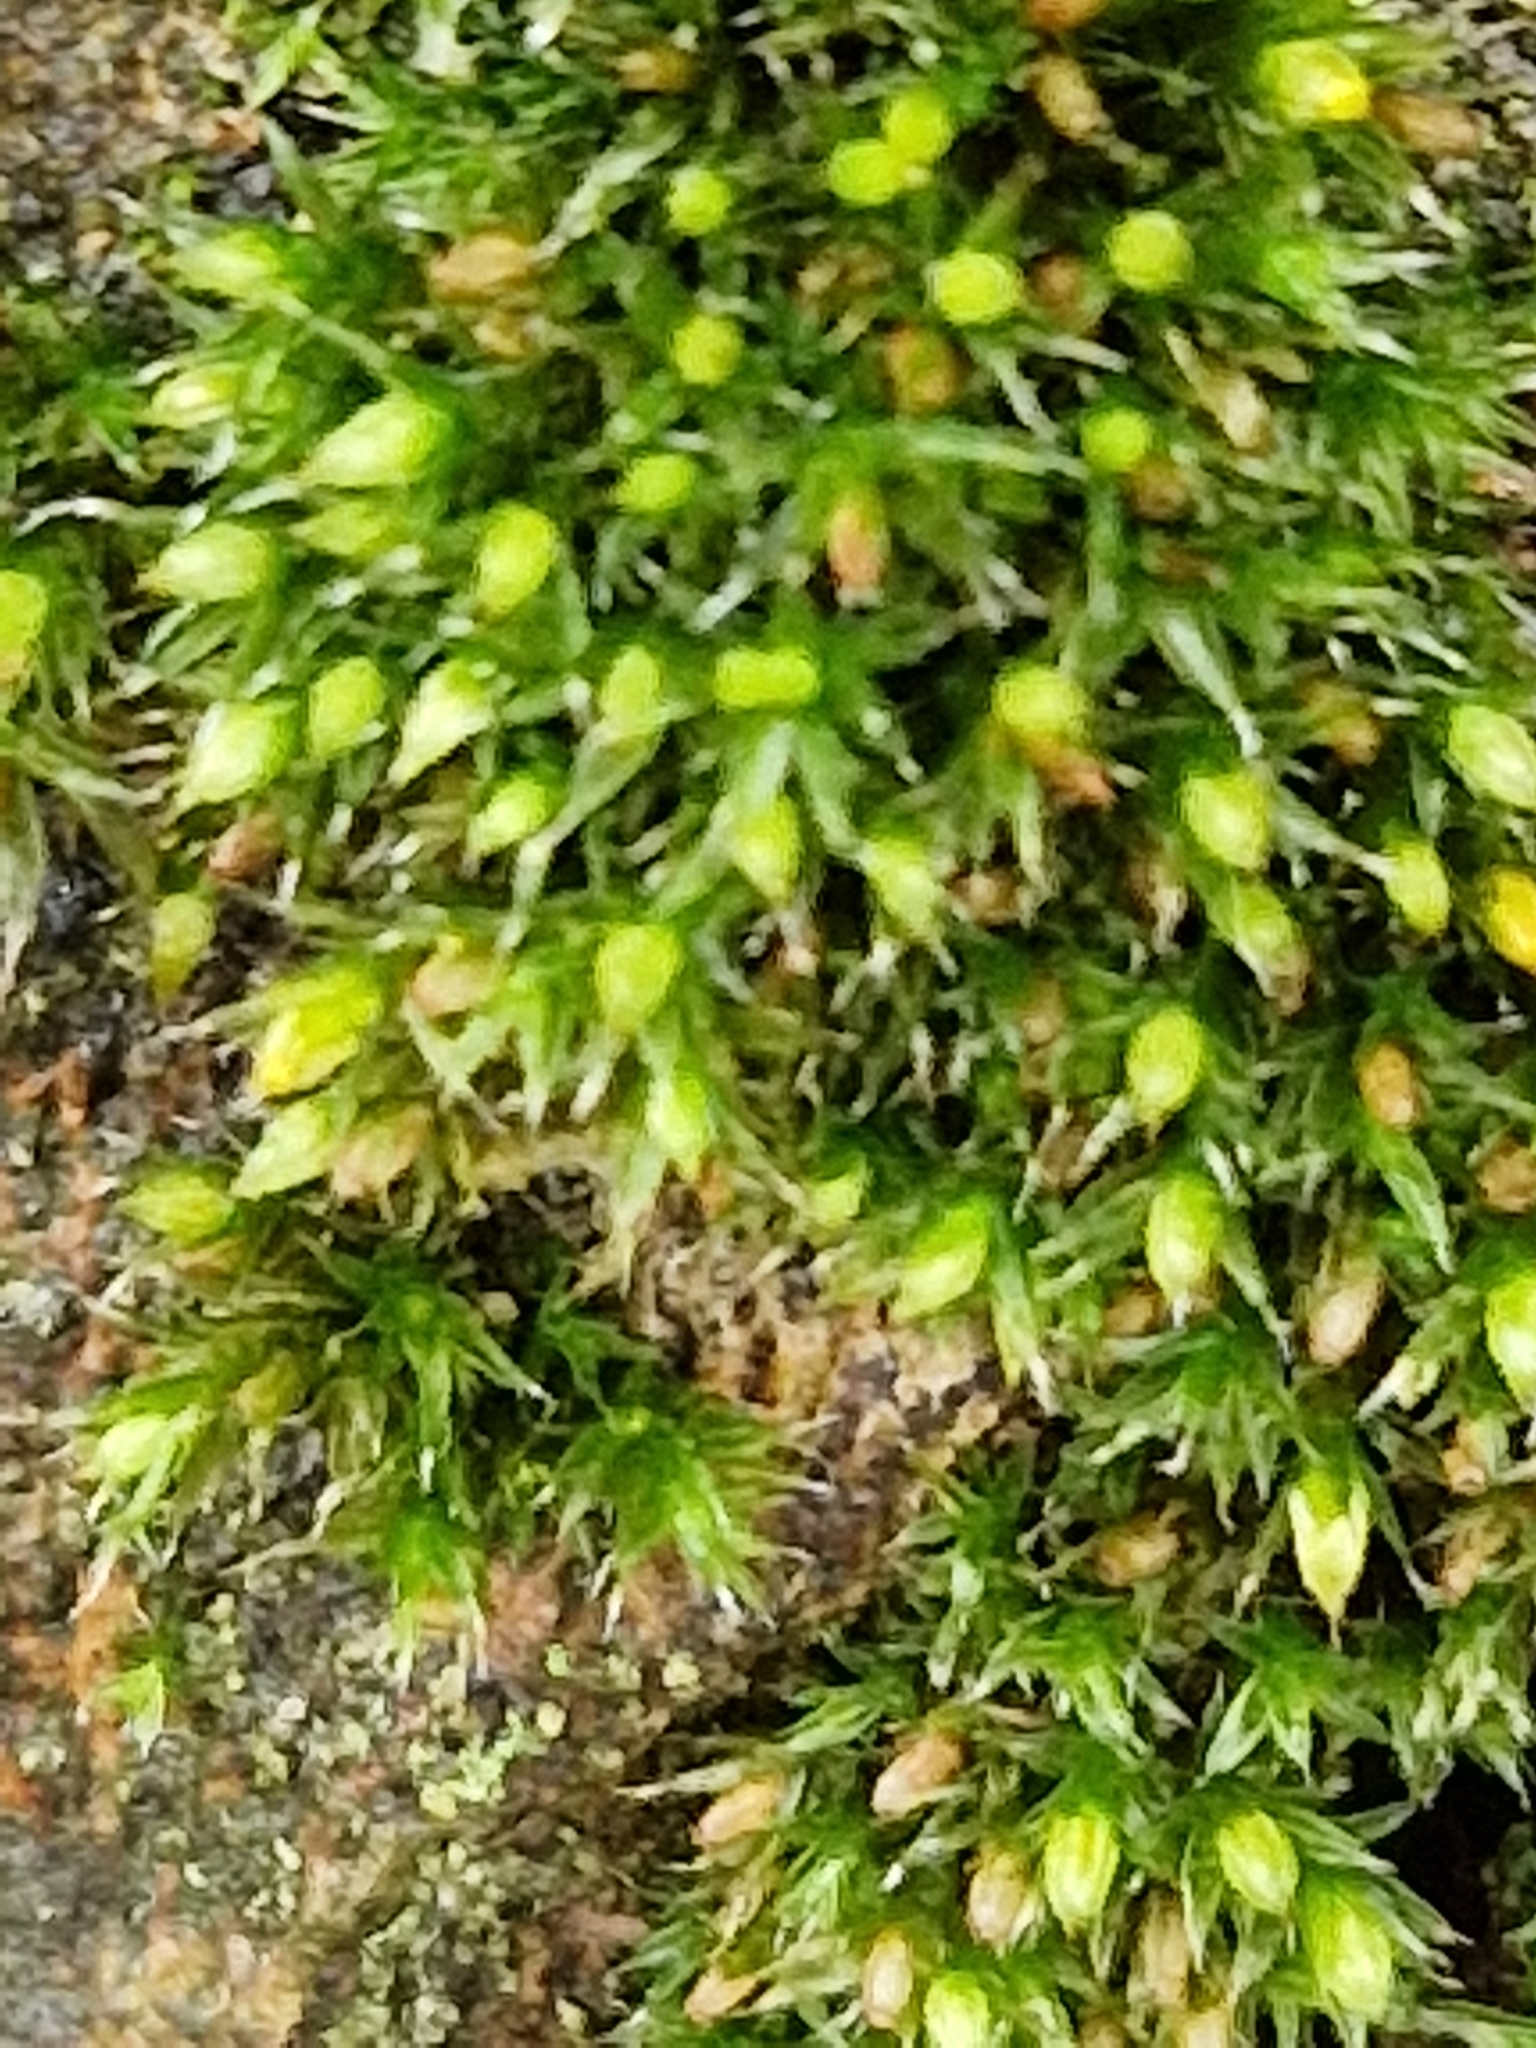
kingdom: Plantae
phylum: Bryophyta
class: Bryopsida
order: Orthotrichales
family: Orthotrichaceae
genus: Orthotrichum
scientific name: Orthotrichum diaphanum
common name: White-tipped bristle-moss
